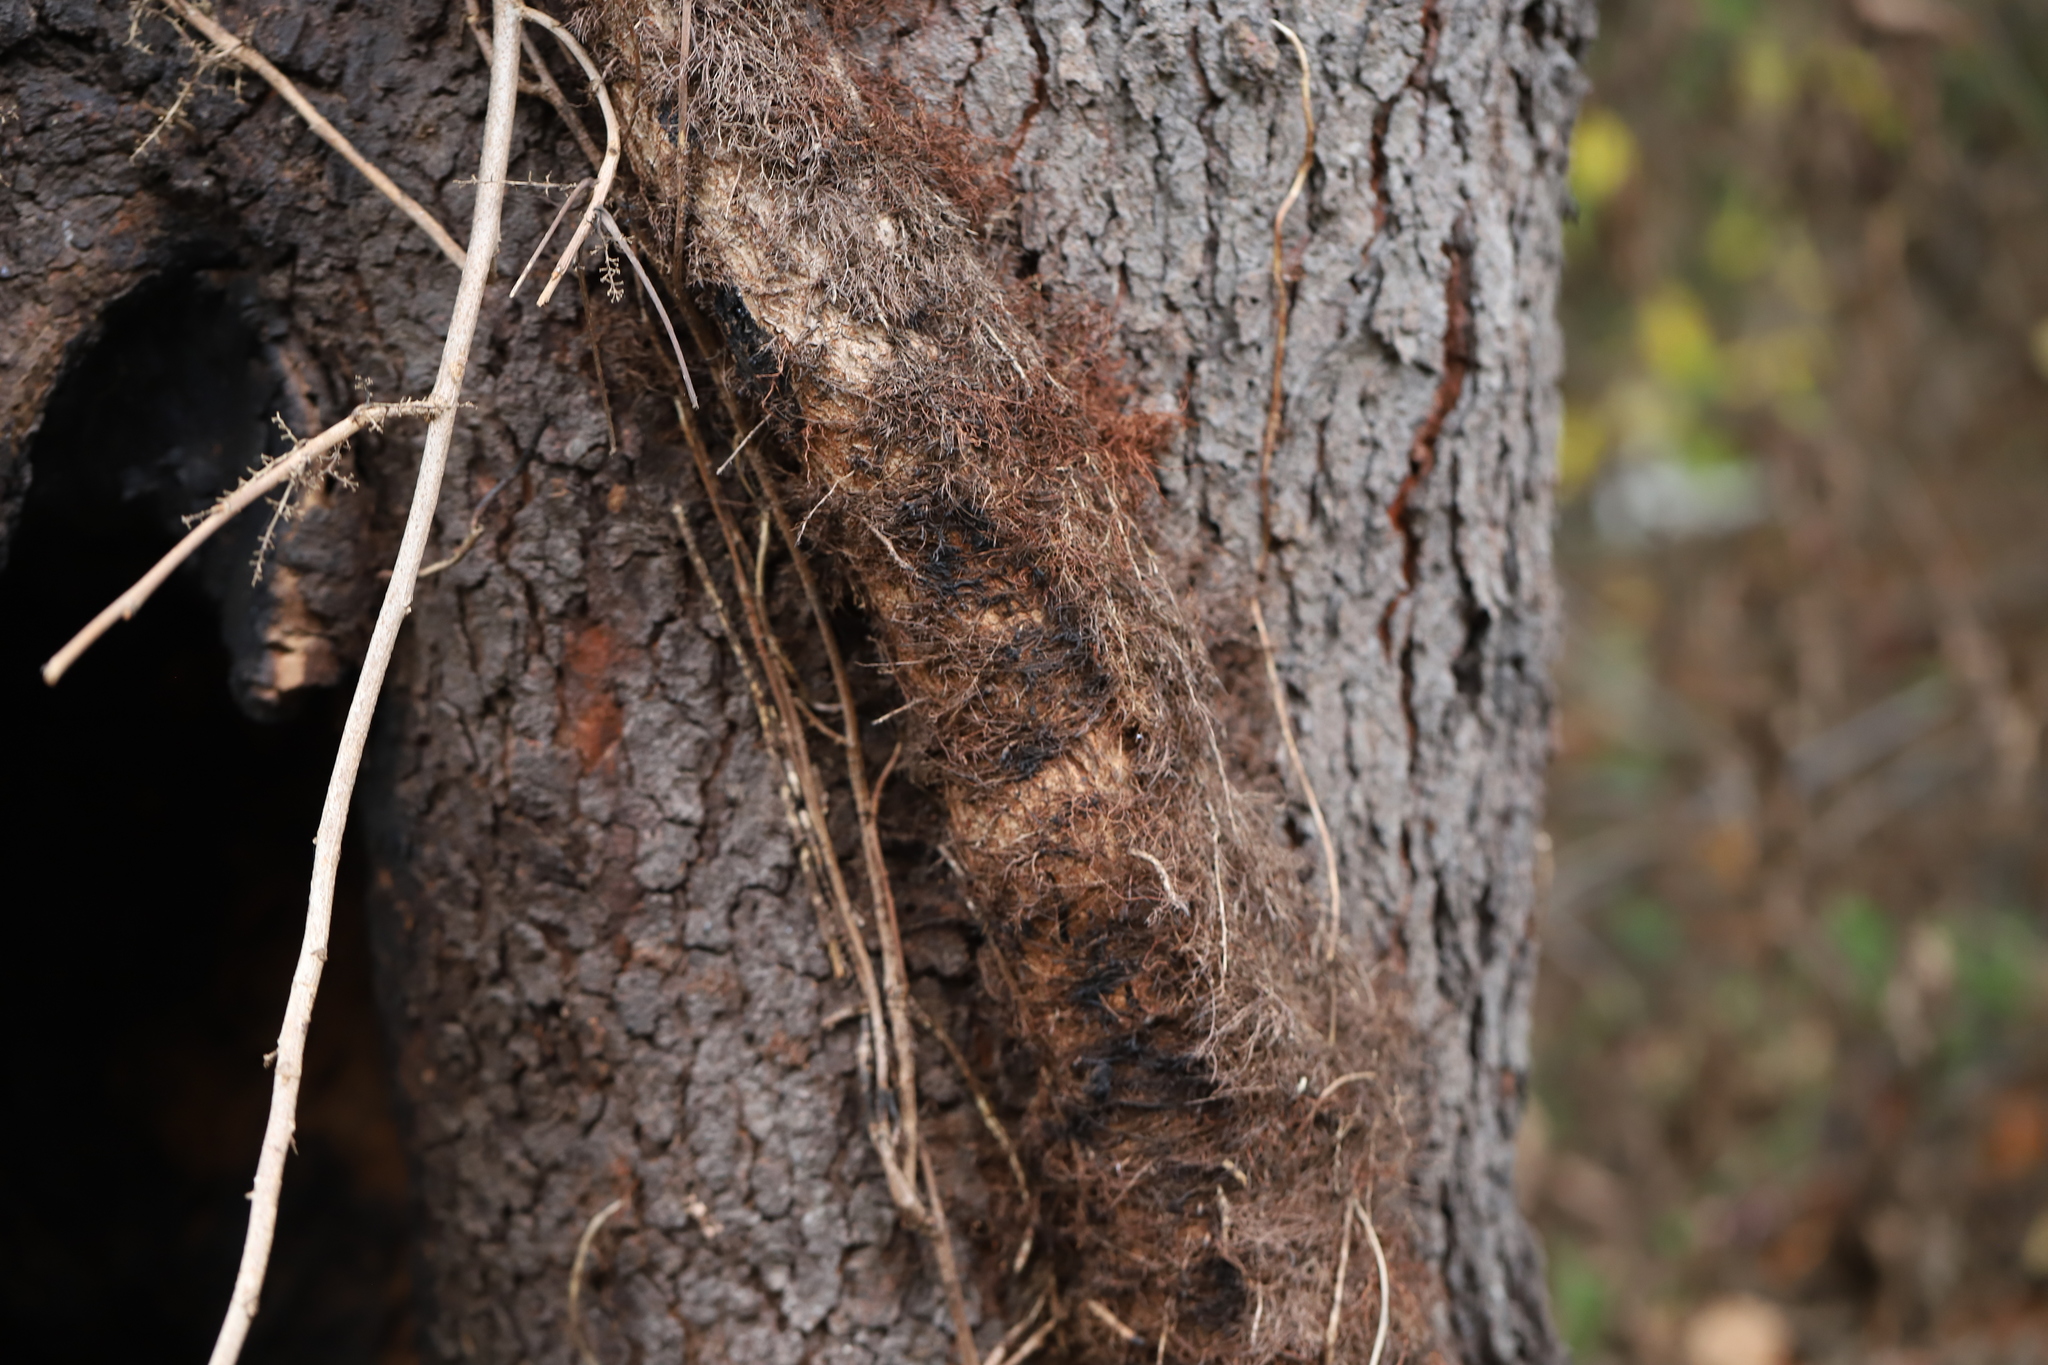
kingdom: Plantae
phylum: Tracheophyta
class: Magnoliopsida
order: Sapindales
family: Anacardiaceae
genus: Toxicodendron
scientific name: Toxicodendron radicans
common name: Poison ivy
